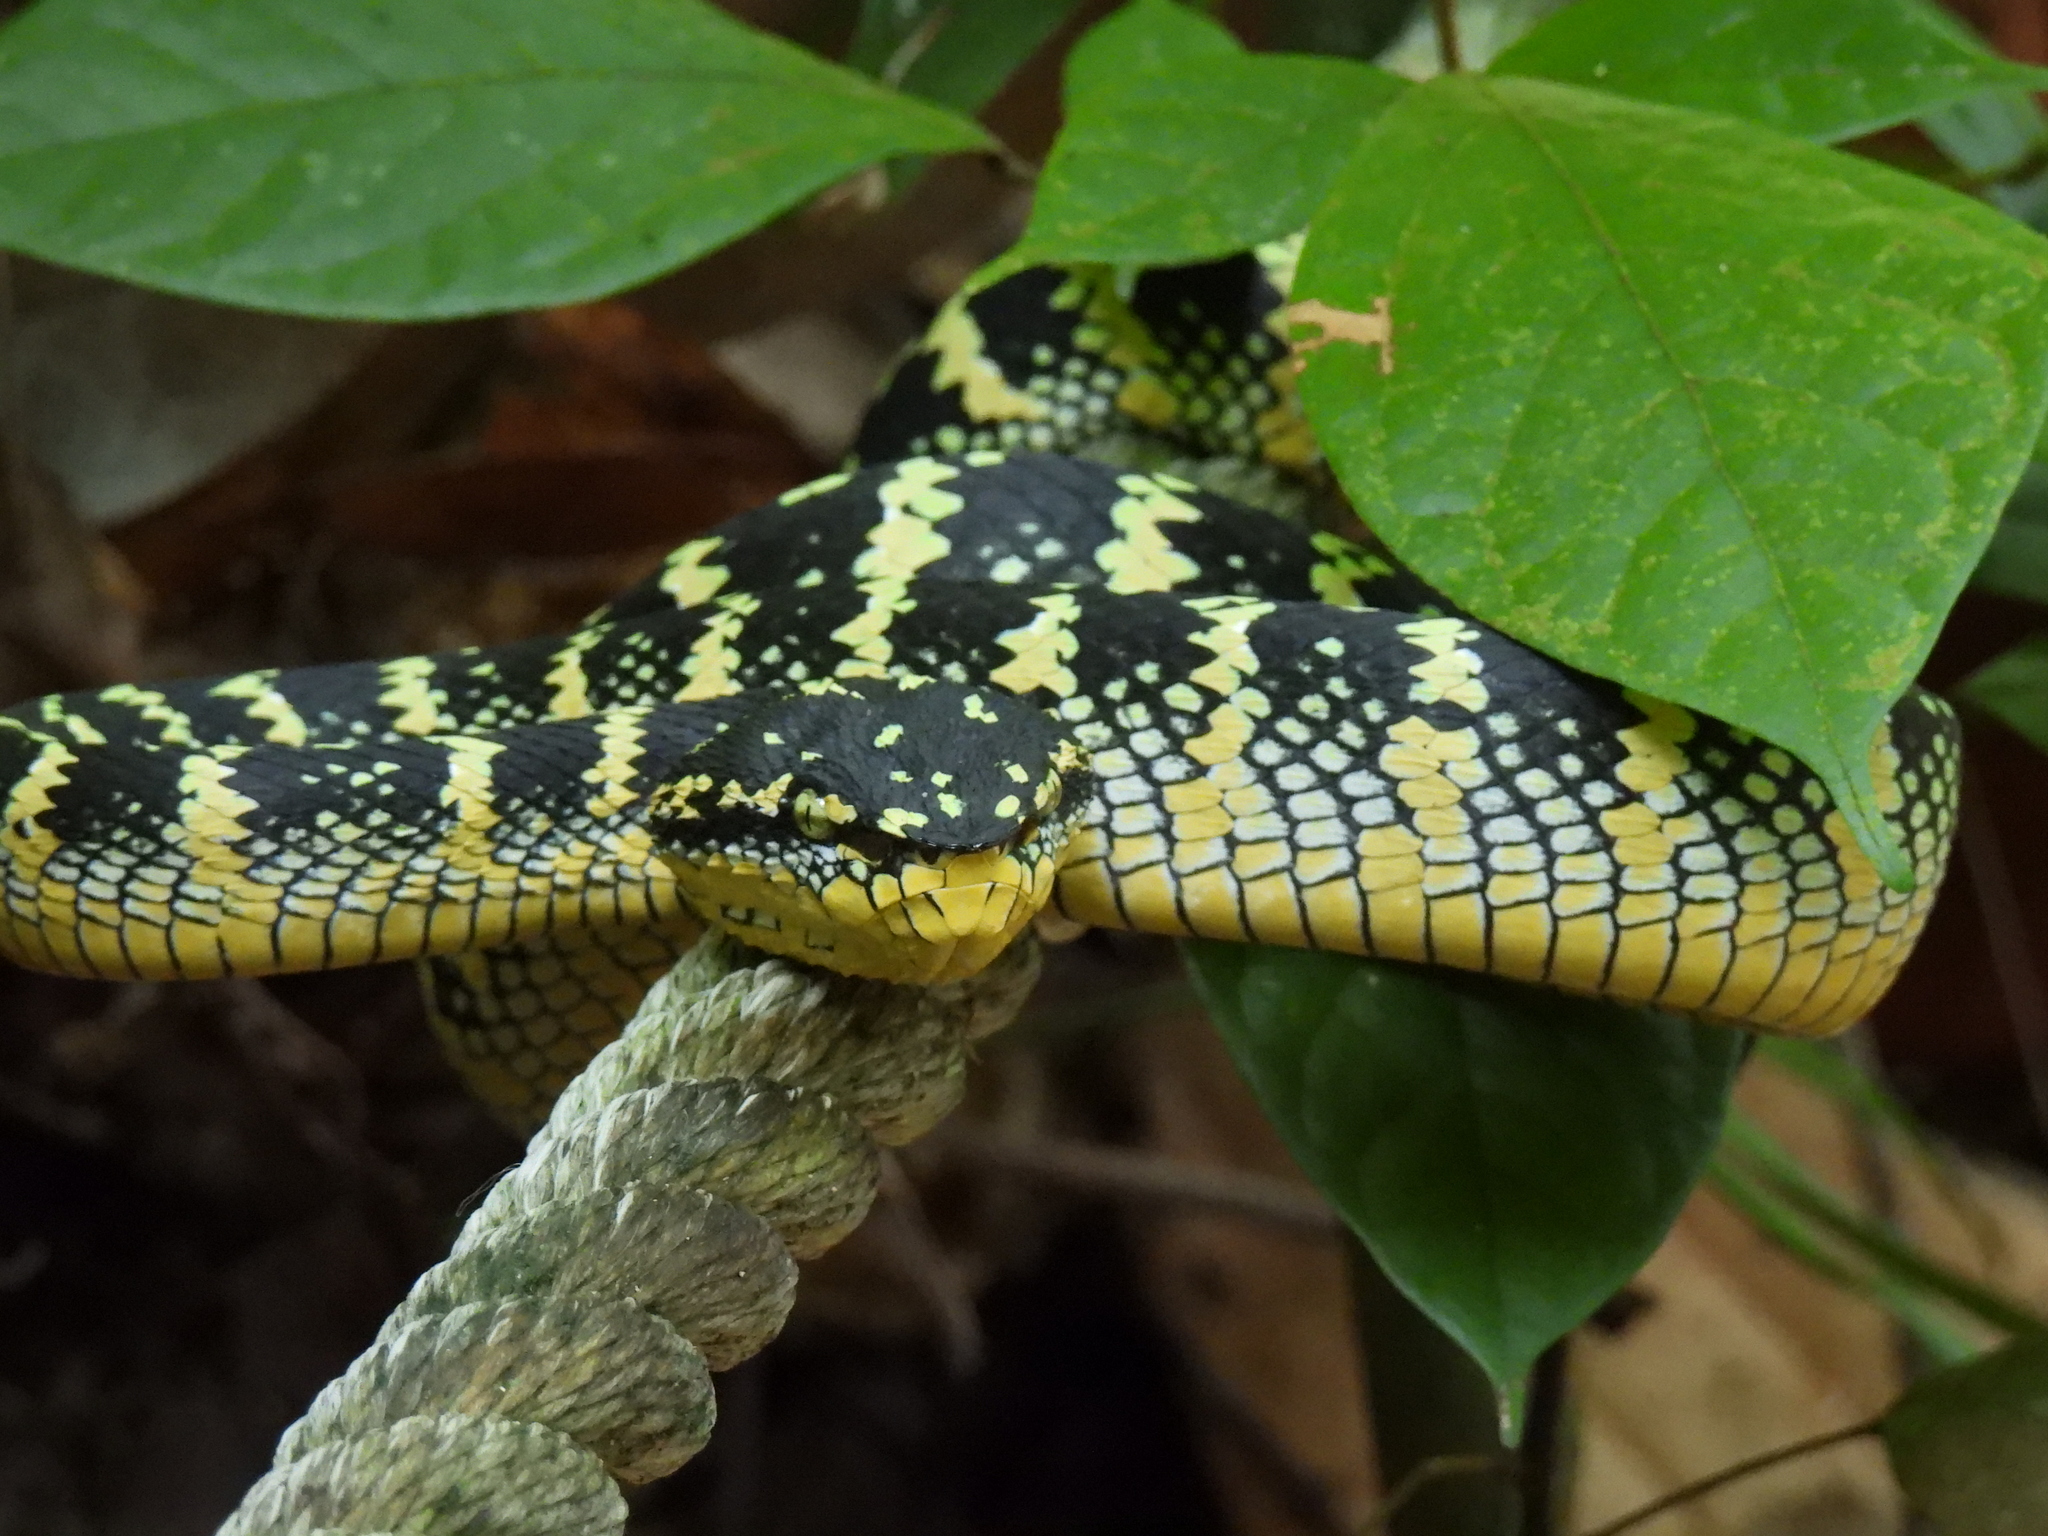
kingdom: Animalia
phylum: Chordata
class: Squamata
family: Viperidae
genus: Tropidolaemus
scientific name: Tropidolaemus wagleri
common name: Wagler's palm viper
